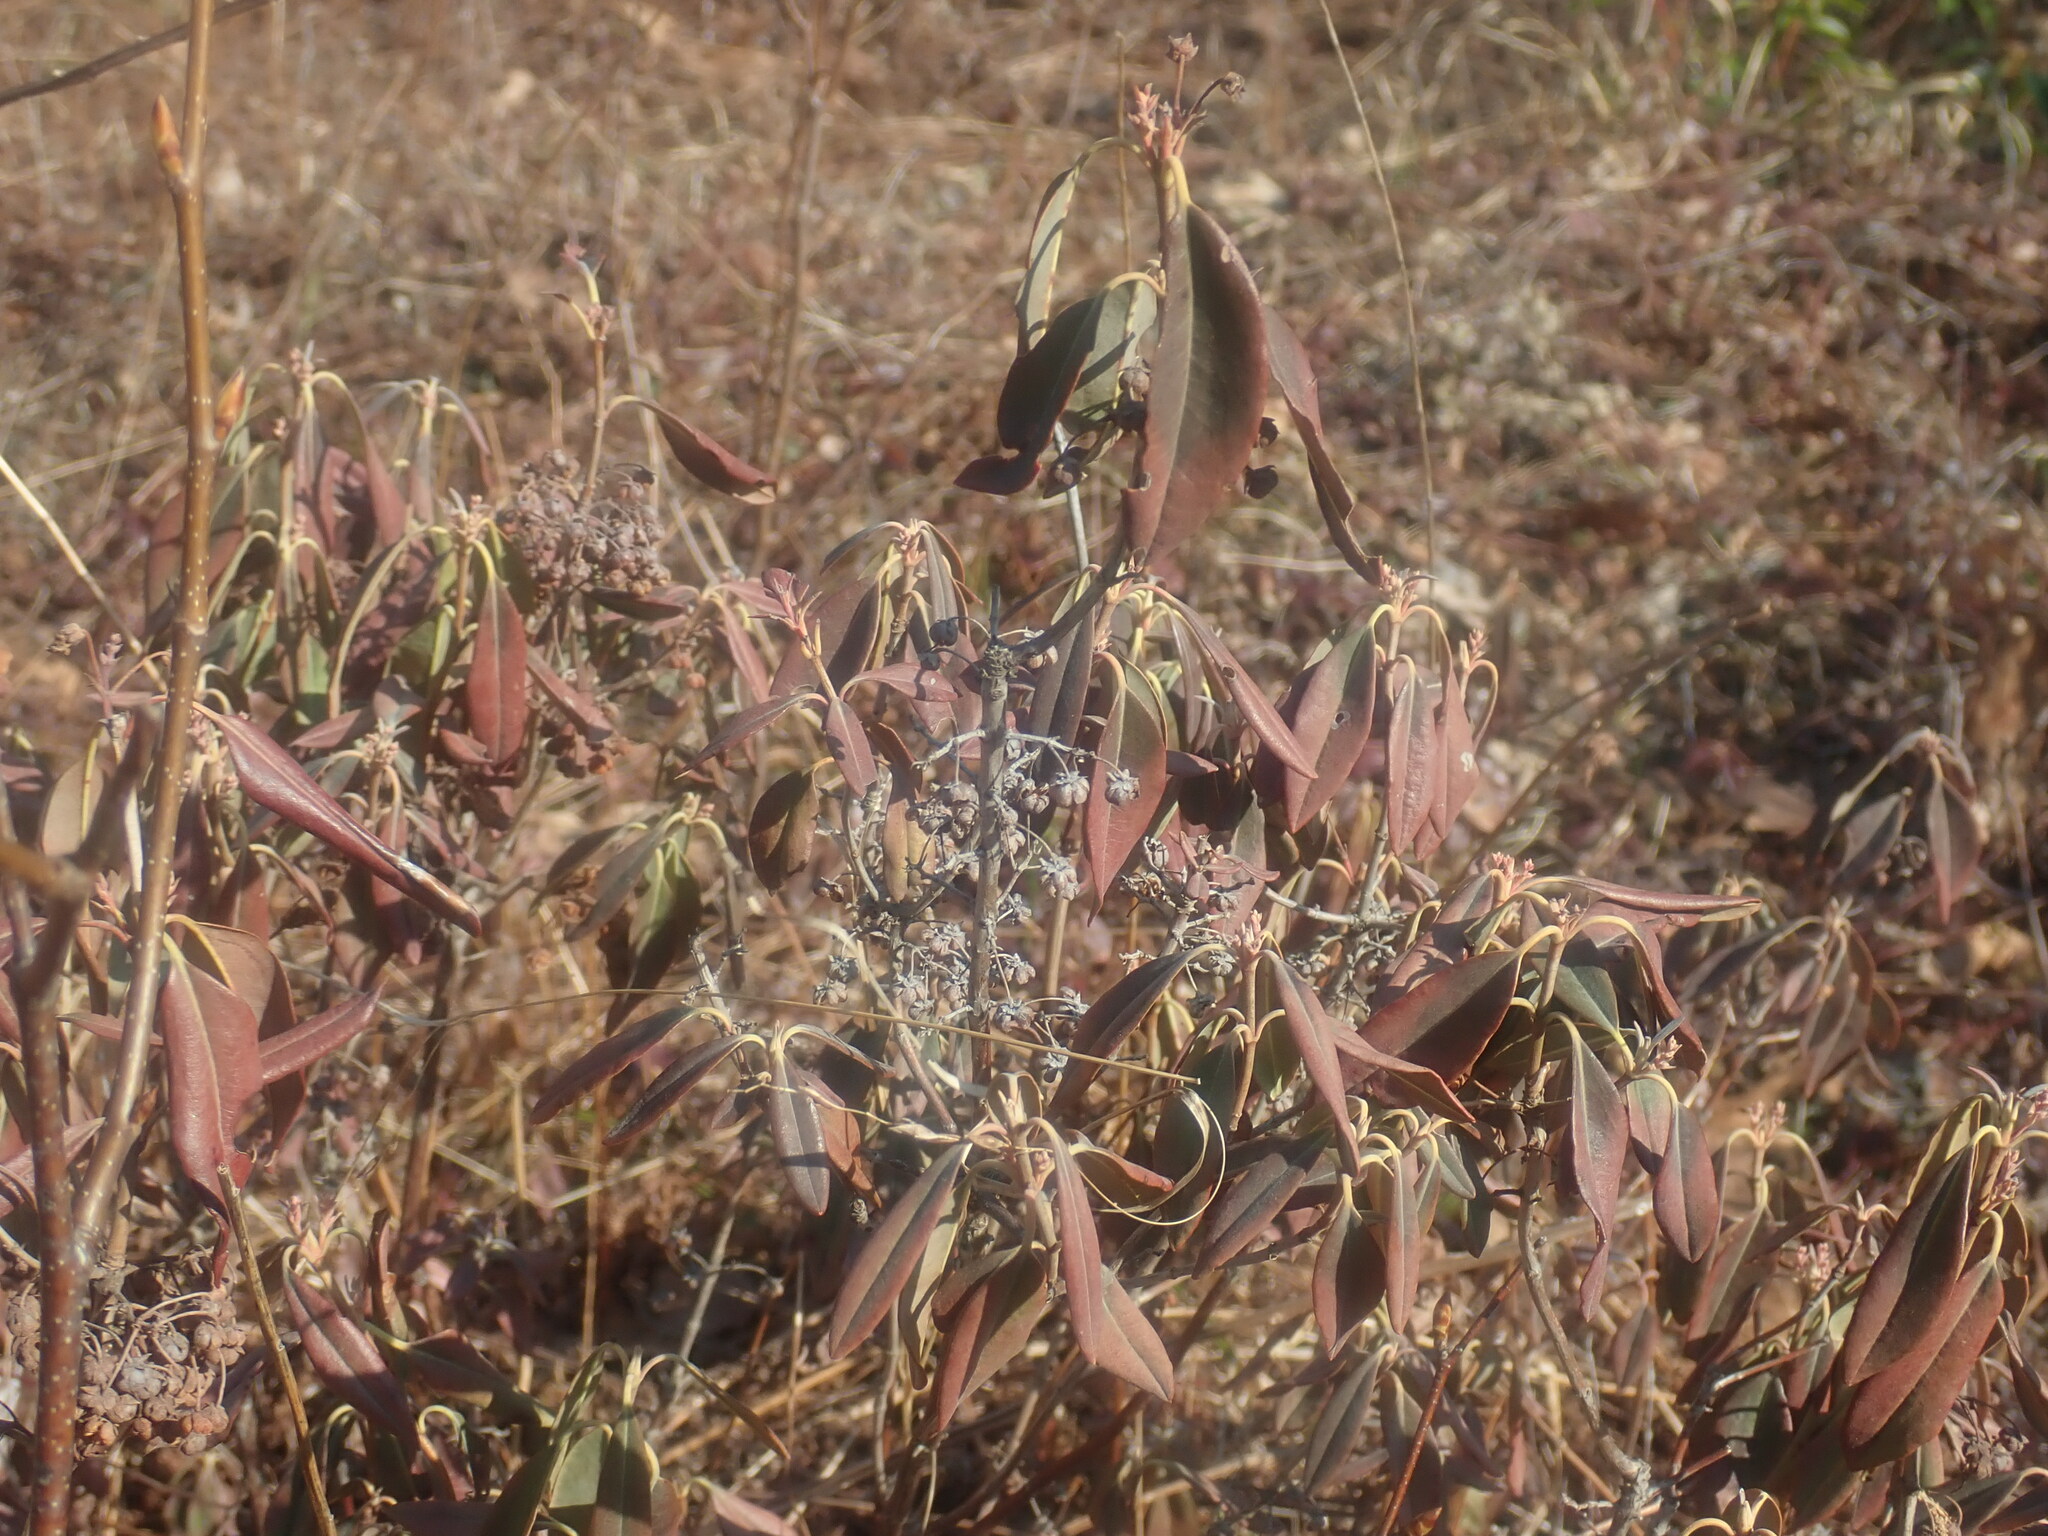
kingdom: Plantae
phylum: Tracheophyta
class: Magnoliopsida
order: Ericales
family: Ericaceae
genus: Kalmia
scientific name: Kalmia angustifolia
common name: Sheep-laurel
